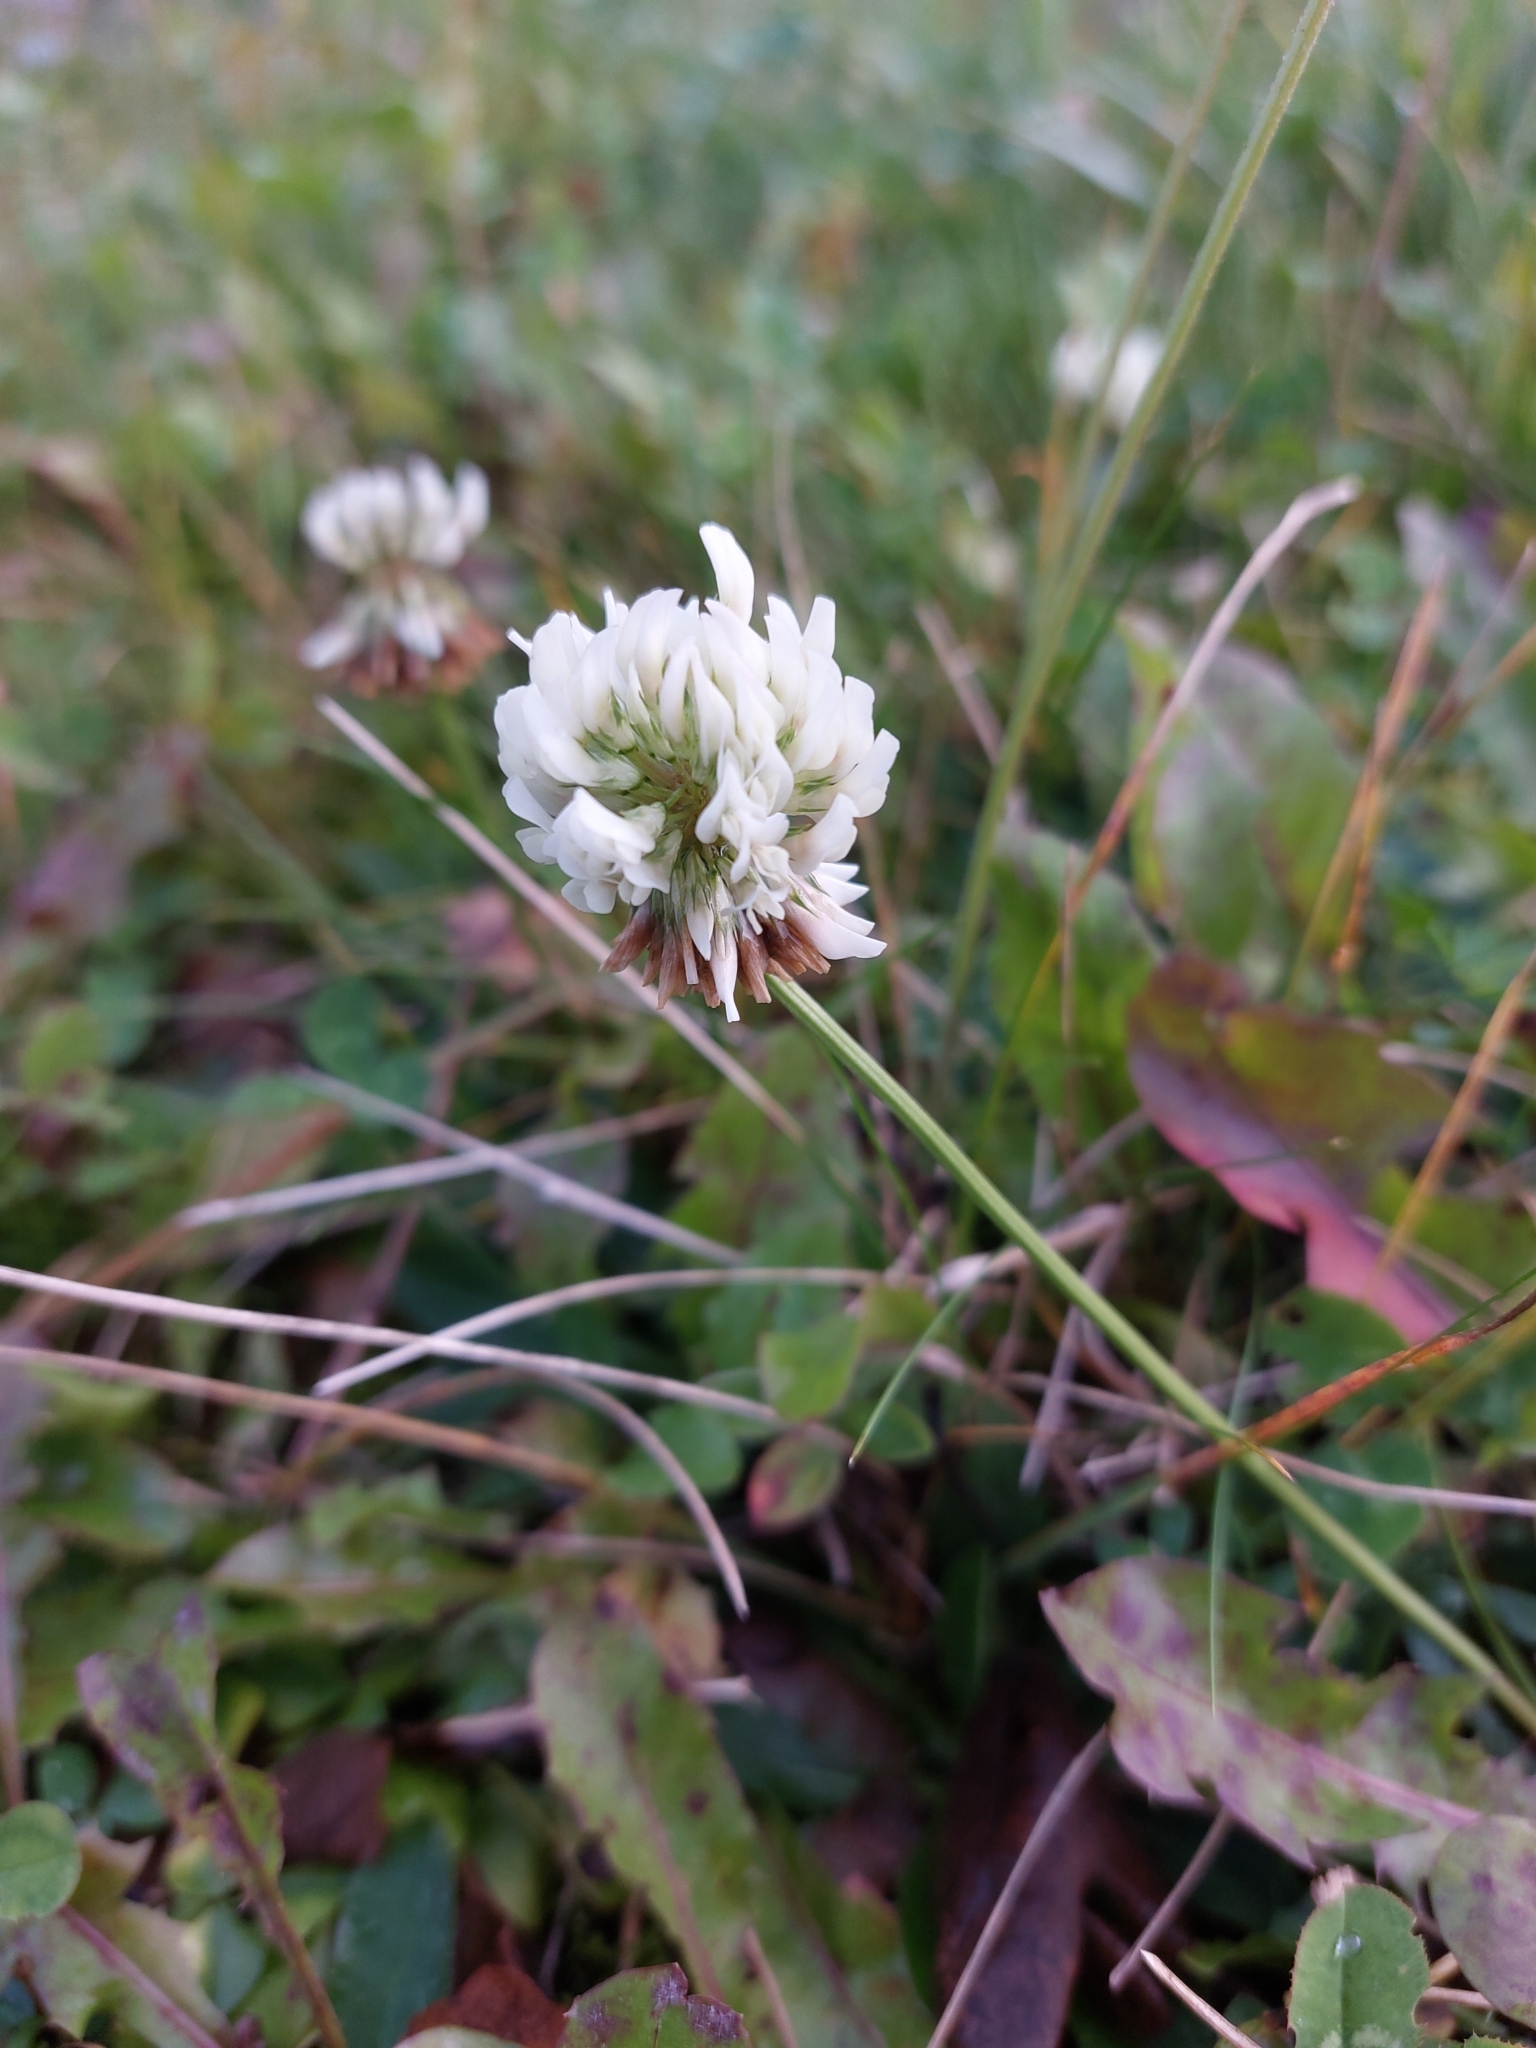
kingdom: Plantae
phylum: Tracheophyta
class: Magnoliopsida
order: Fabales
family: Fabaceae
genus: Trifolium
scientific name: Trifolium repens
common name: White clover
